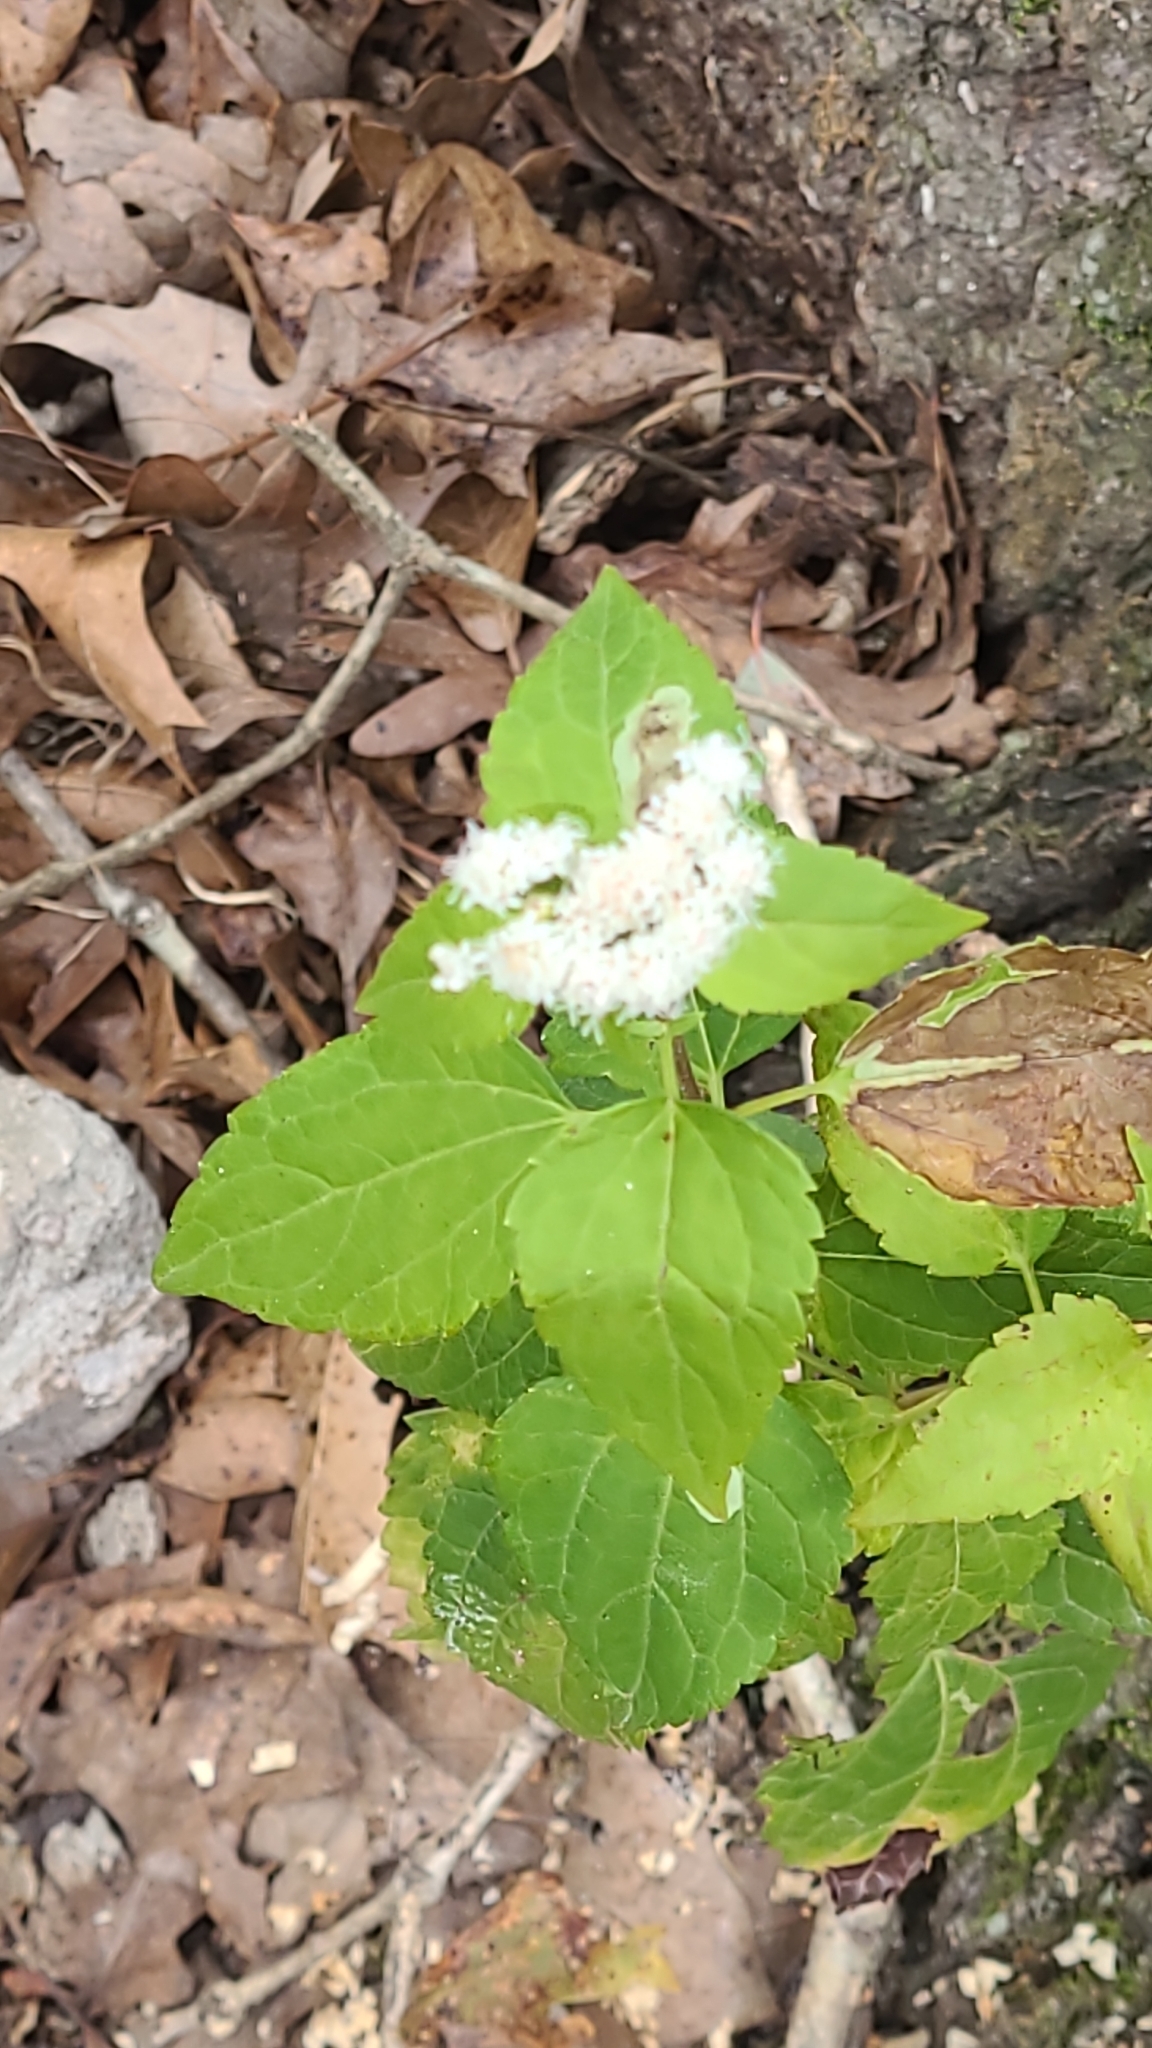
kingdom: Plantae
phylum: Tracheophyta
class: Magnoliopsida
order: Asterales
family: Asteraceae
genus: Ageratina
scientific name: Ageratina altissima
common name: White snakeroot
